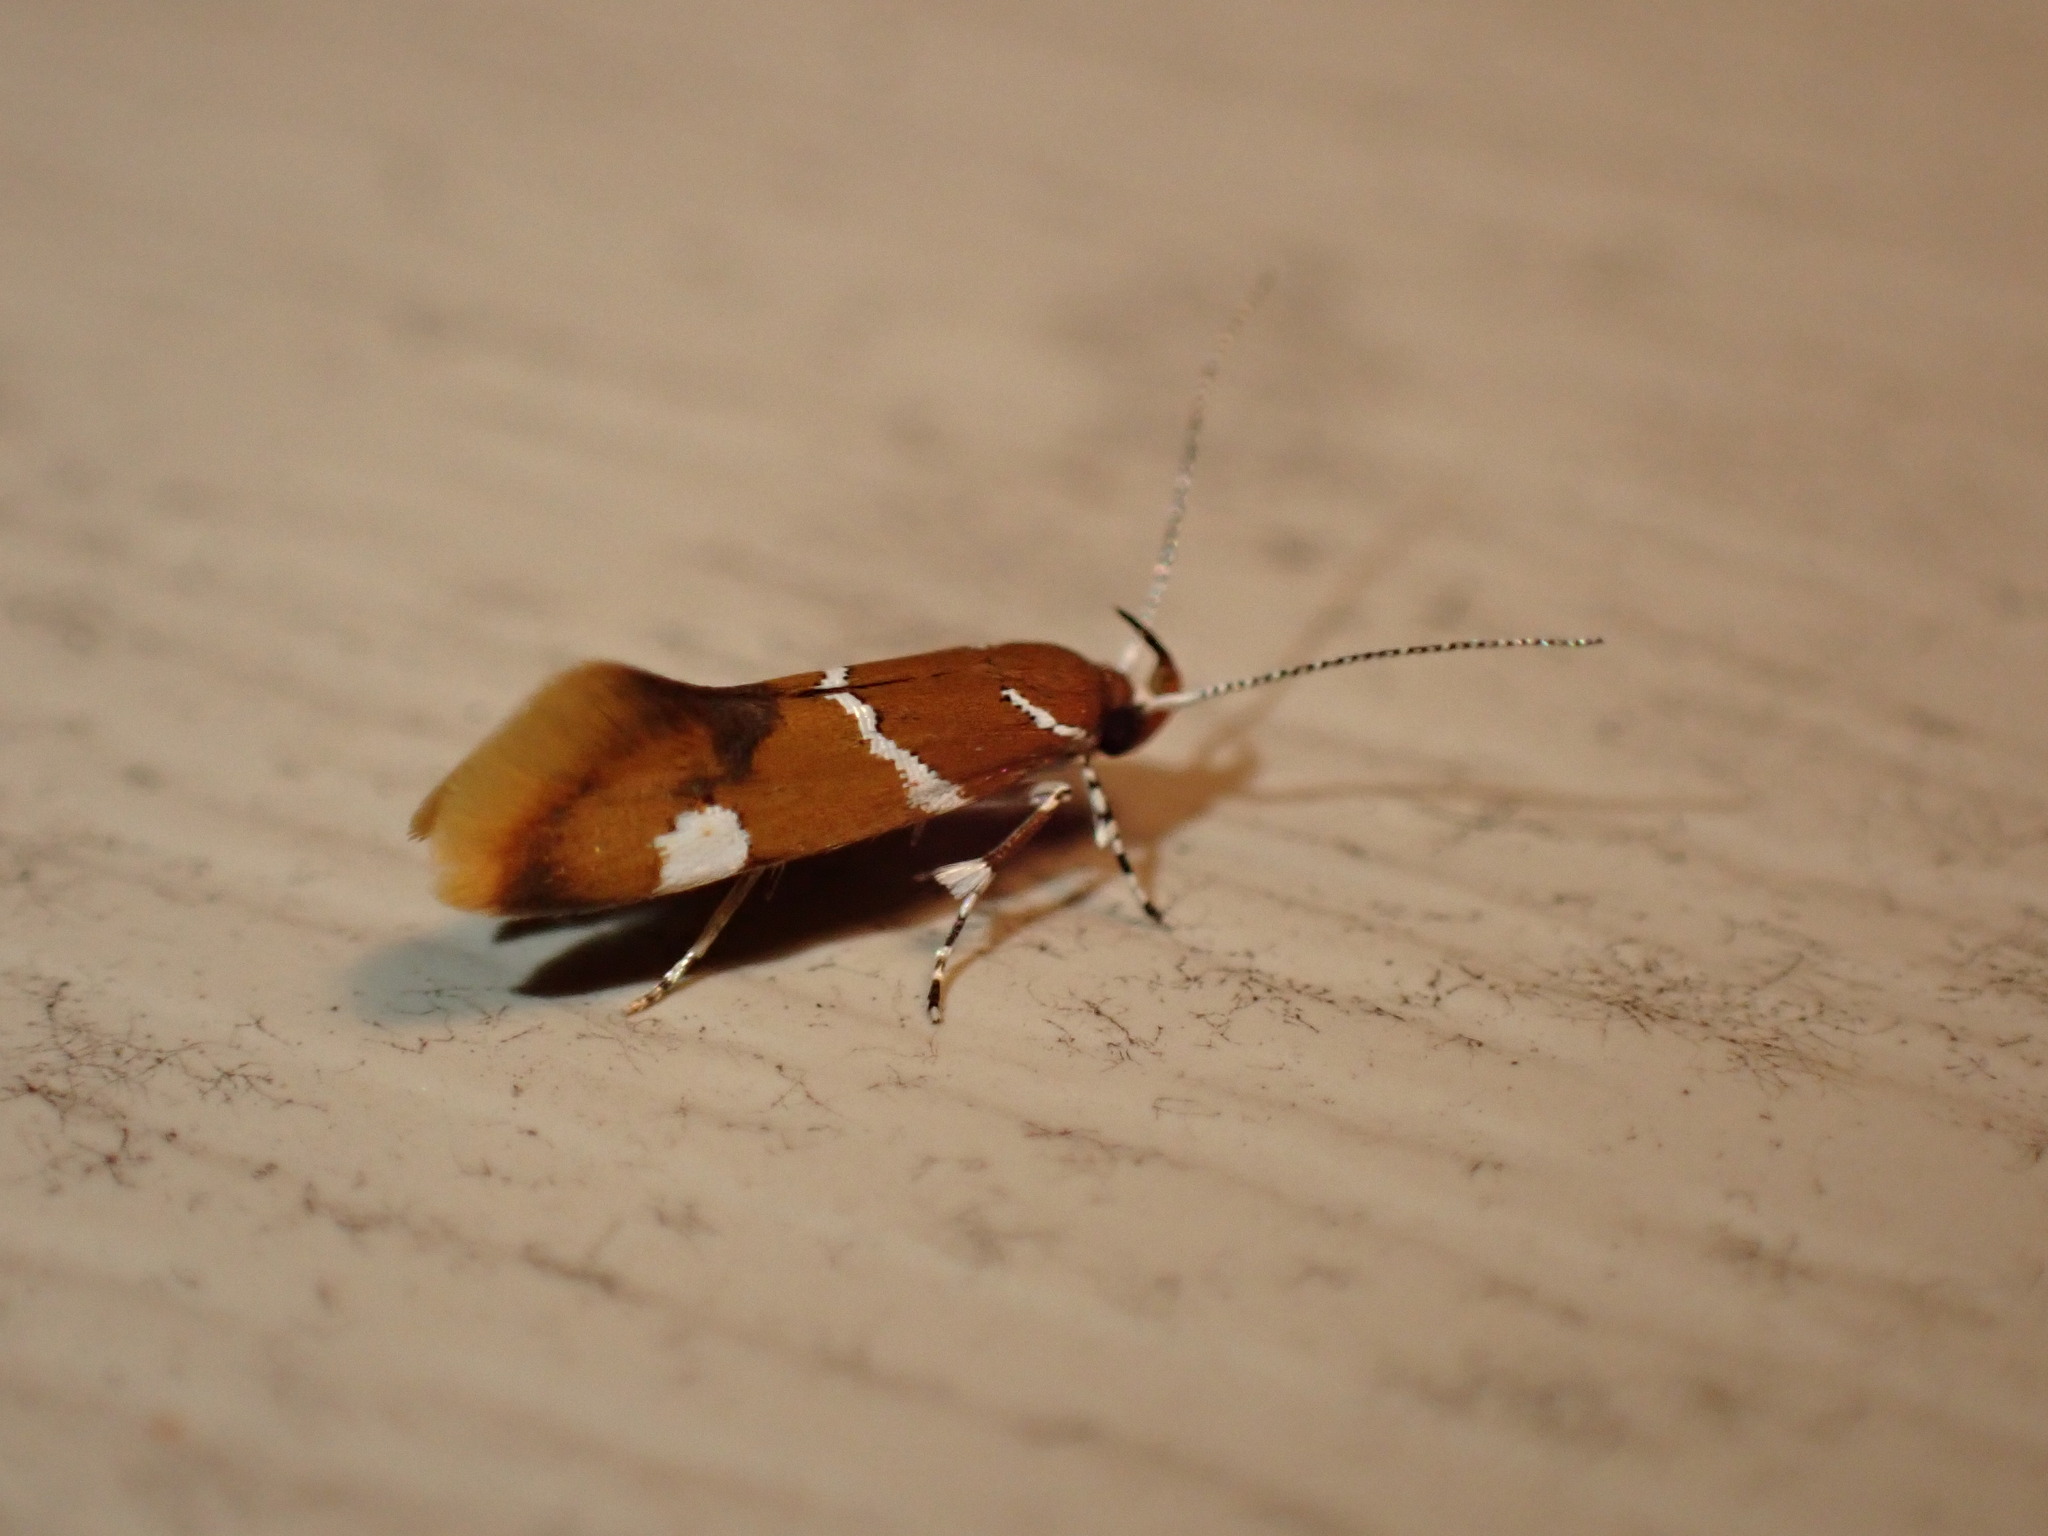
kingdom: Animalia
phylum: Arthropoda
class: Insecta
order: Lepidoptera
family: Oecophoridae
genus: Promalactis
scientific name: Promalactis suzukiella
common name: Moth
